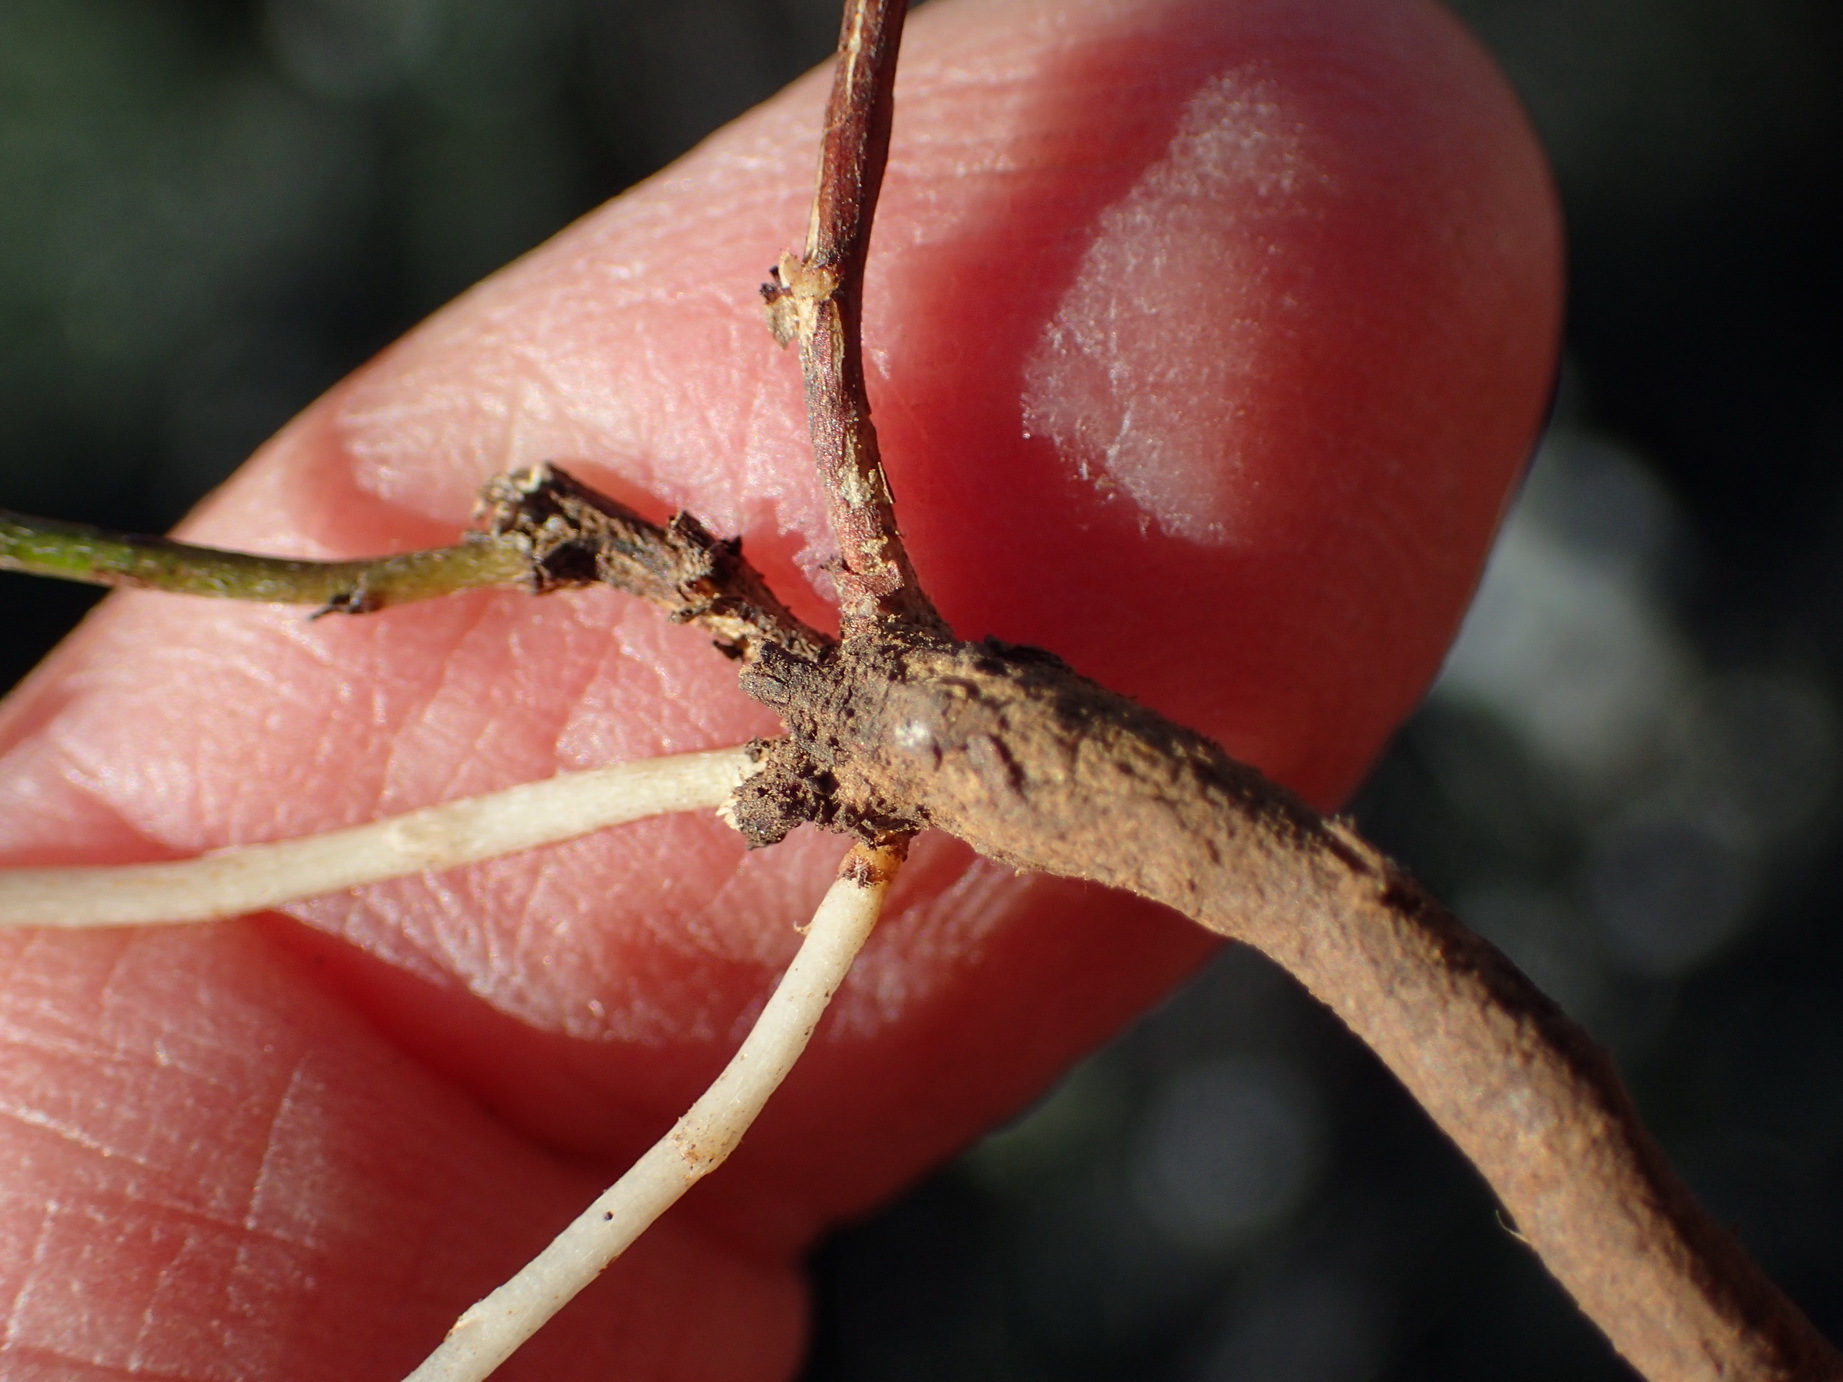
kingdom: Plantae
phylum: Tracheophyta
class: Magnoliopsida
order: Fabales
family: Fabaceae
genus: Indigofera
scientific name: Indigofera heterophylla
